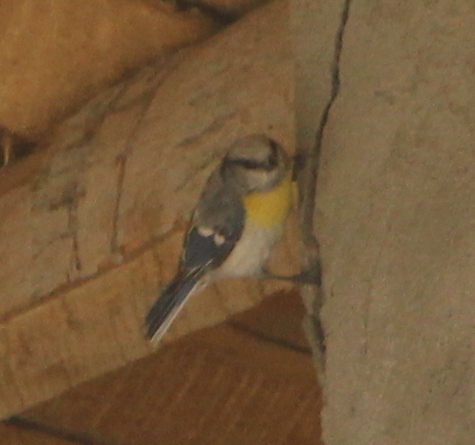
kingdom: Animalia
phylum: Chordata
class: Aves
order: Passeriformes
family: Paridae
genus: Cyanistes
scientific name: Cyanistes cyanus
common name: Azure tit
